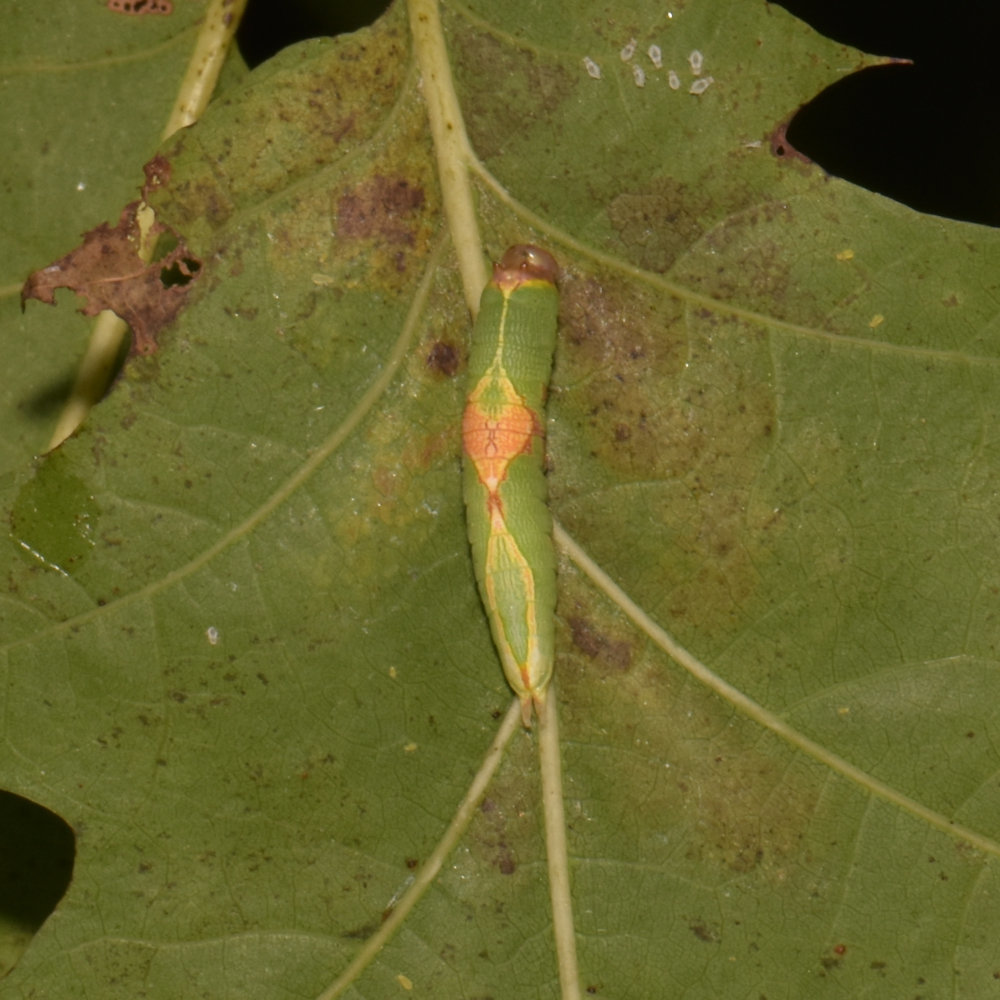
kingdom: Animalia
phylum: Arthropoda
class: Insecta
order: Lepidoptera
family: Notodontidae
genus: Heterocampa
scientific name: Heterocampa obliqua
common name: Oblique heterocampa
